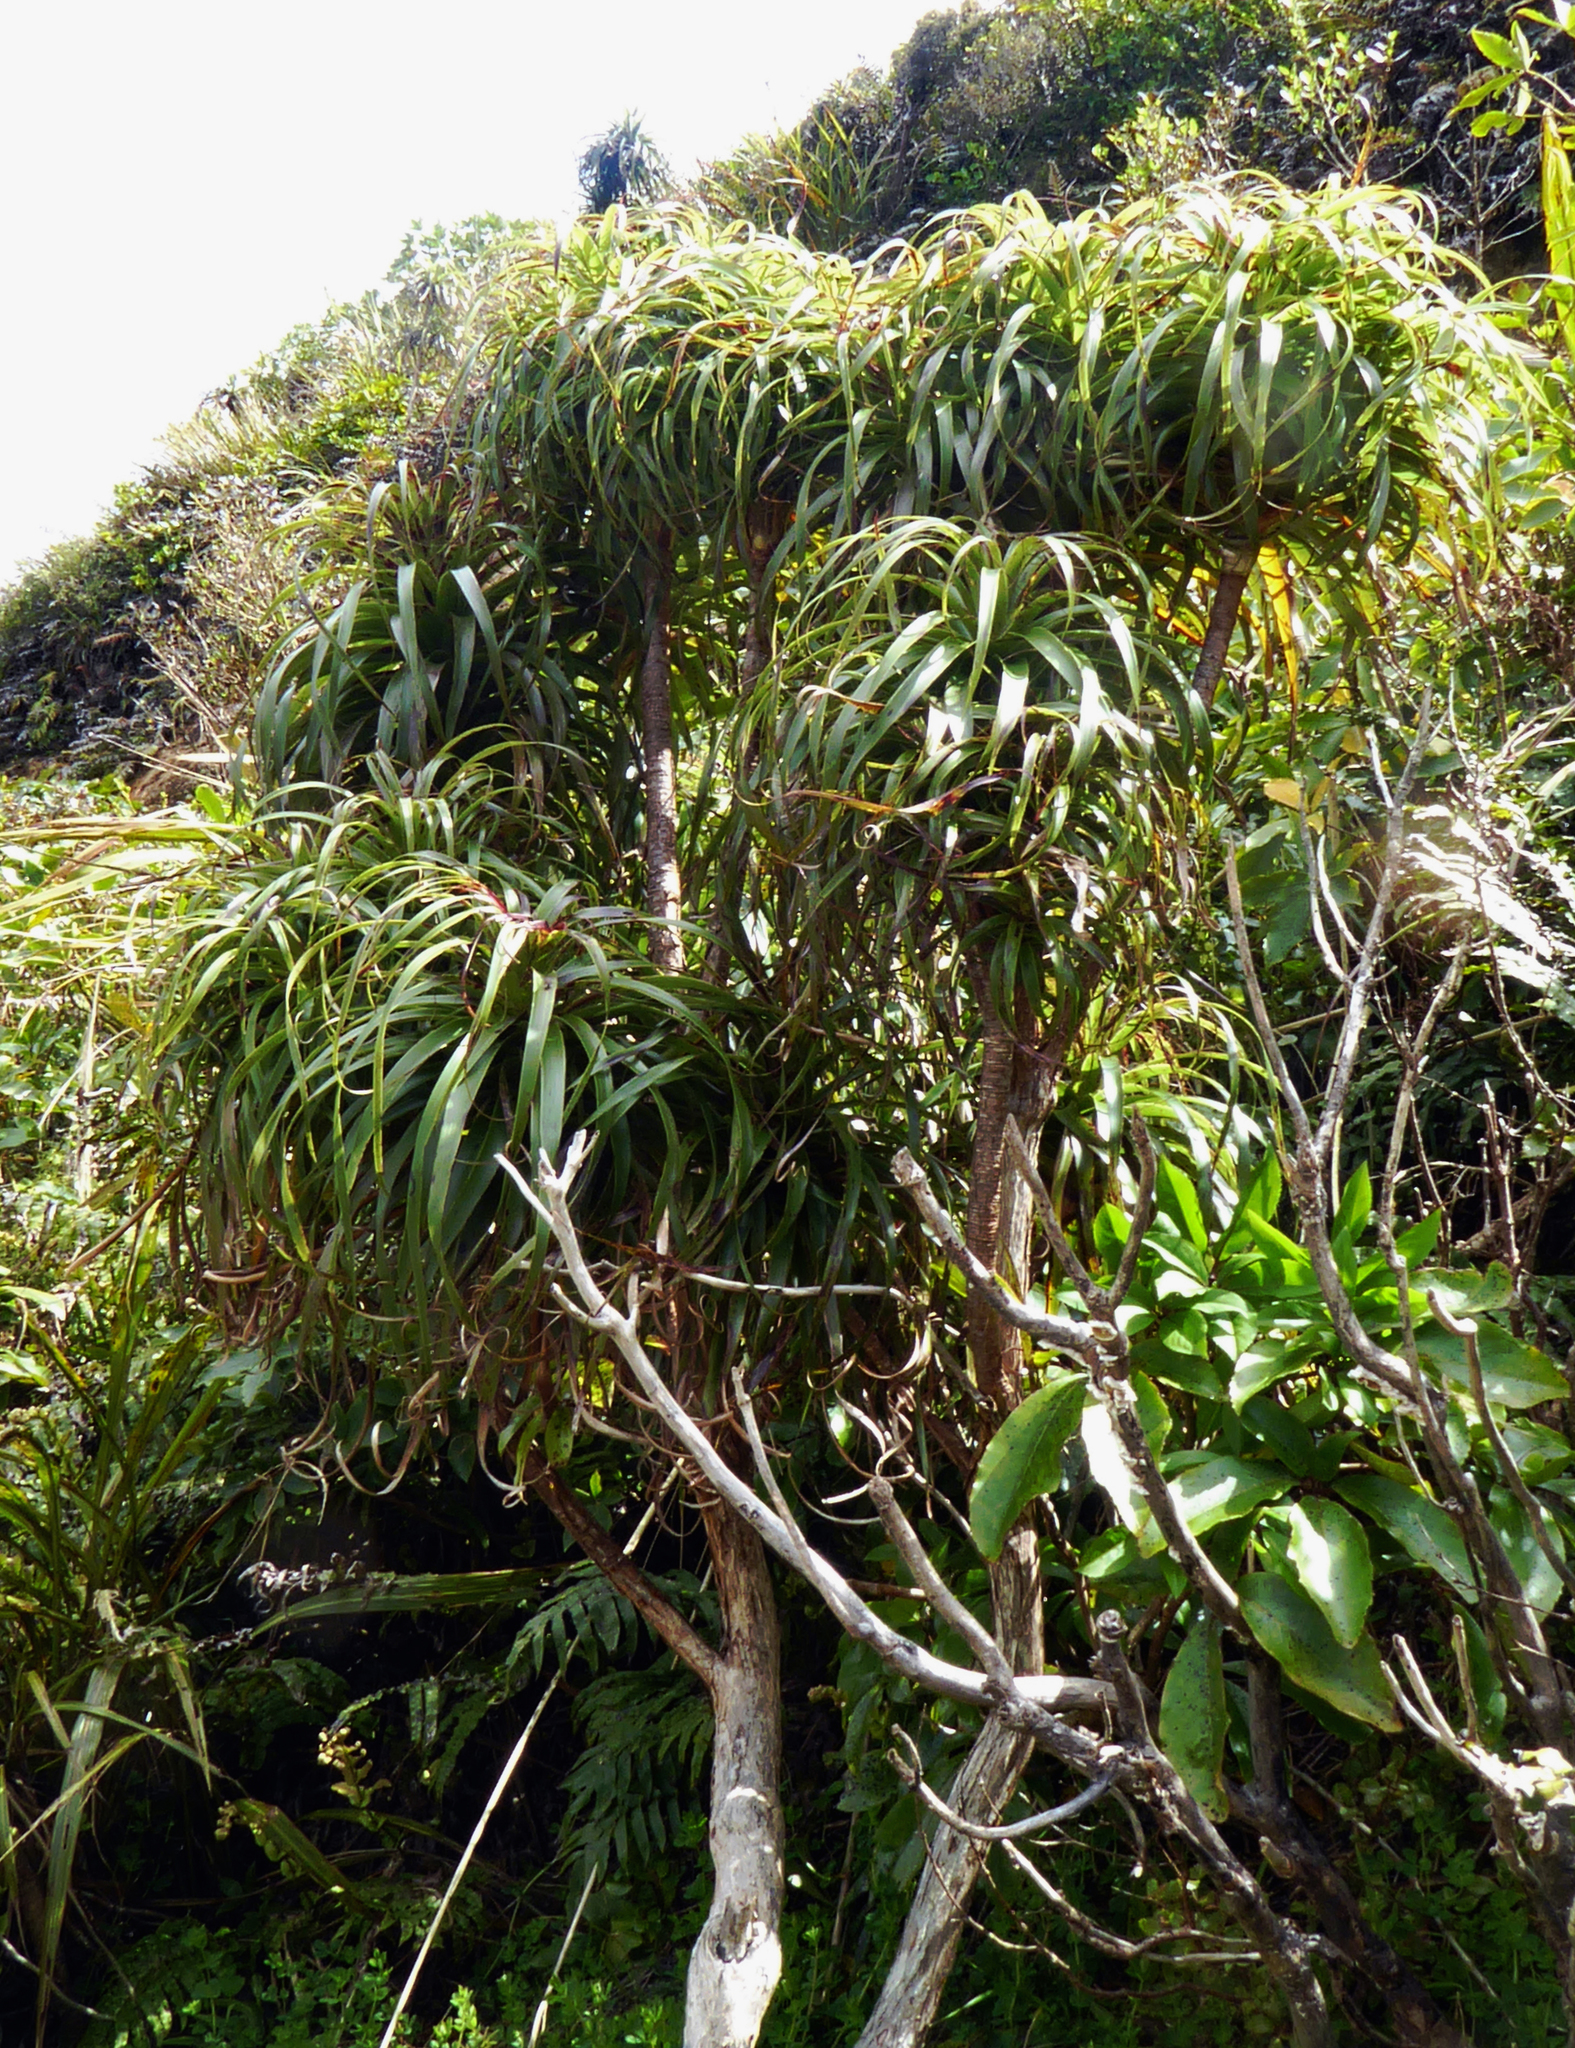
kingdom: Plantae
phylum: Tracheophyta
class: Magnoliopsida
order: Ericales
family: Ericaceae
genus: Dracophyllum
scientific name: Dracophyllum traversii
